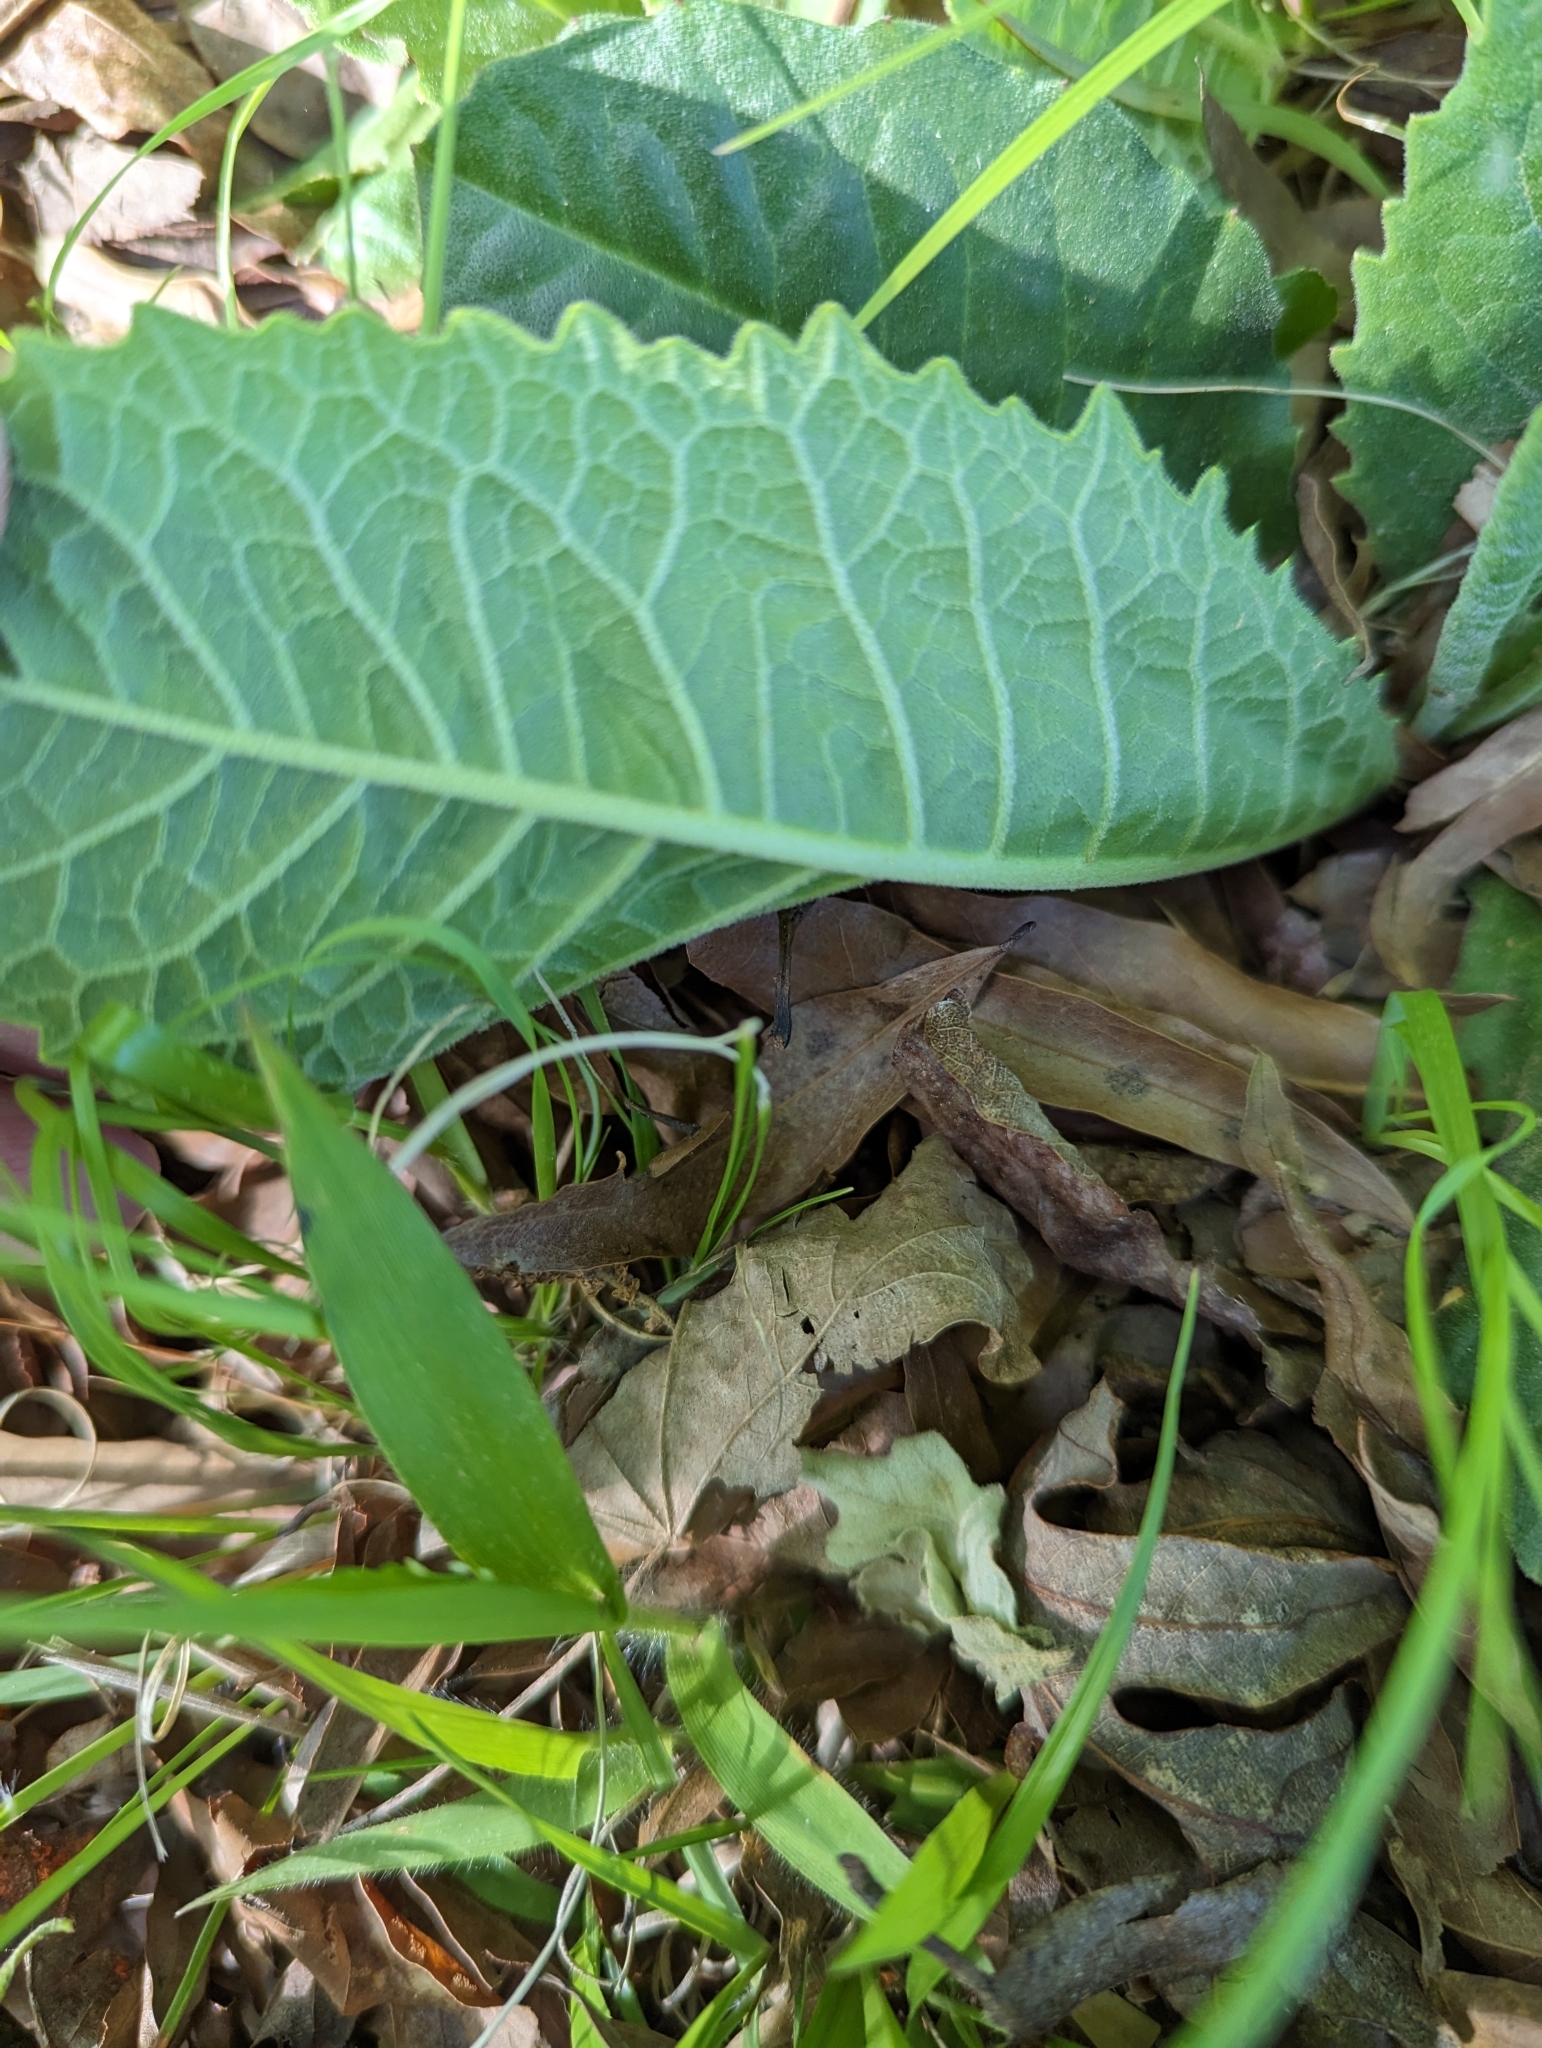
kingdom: Plantae
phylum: Tracheophyta
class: Magnoliopsida
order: Asterales
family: Asteraceae
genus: Vernonia
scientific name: Vernonia acaulis
